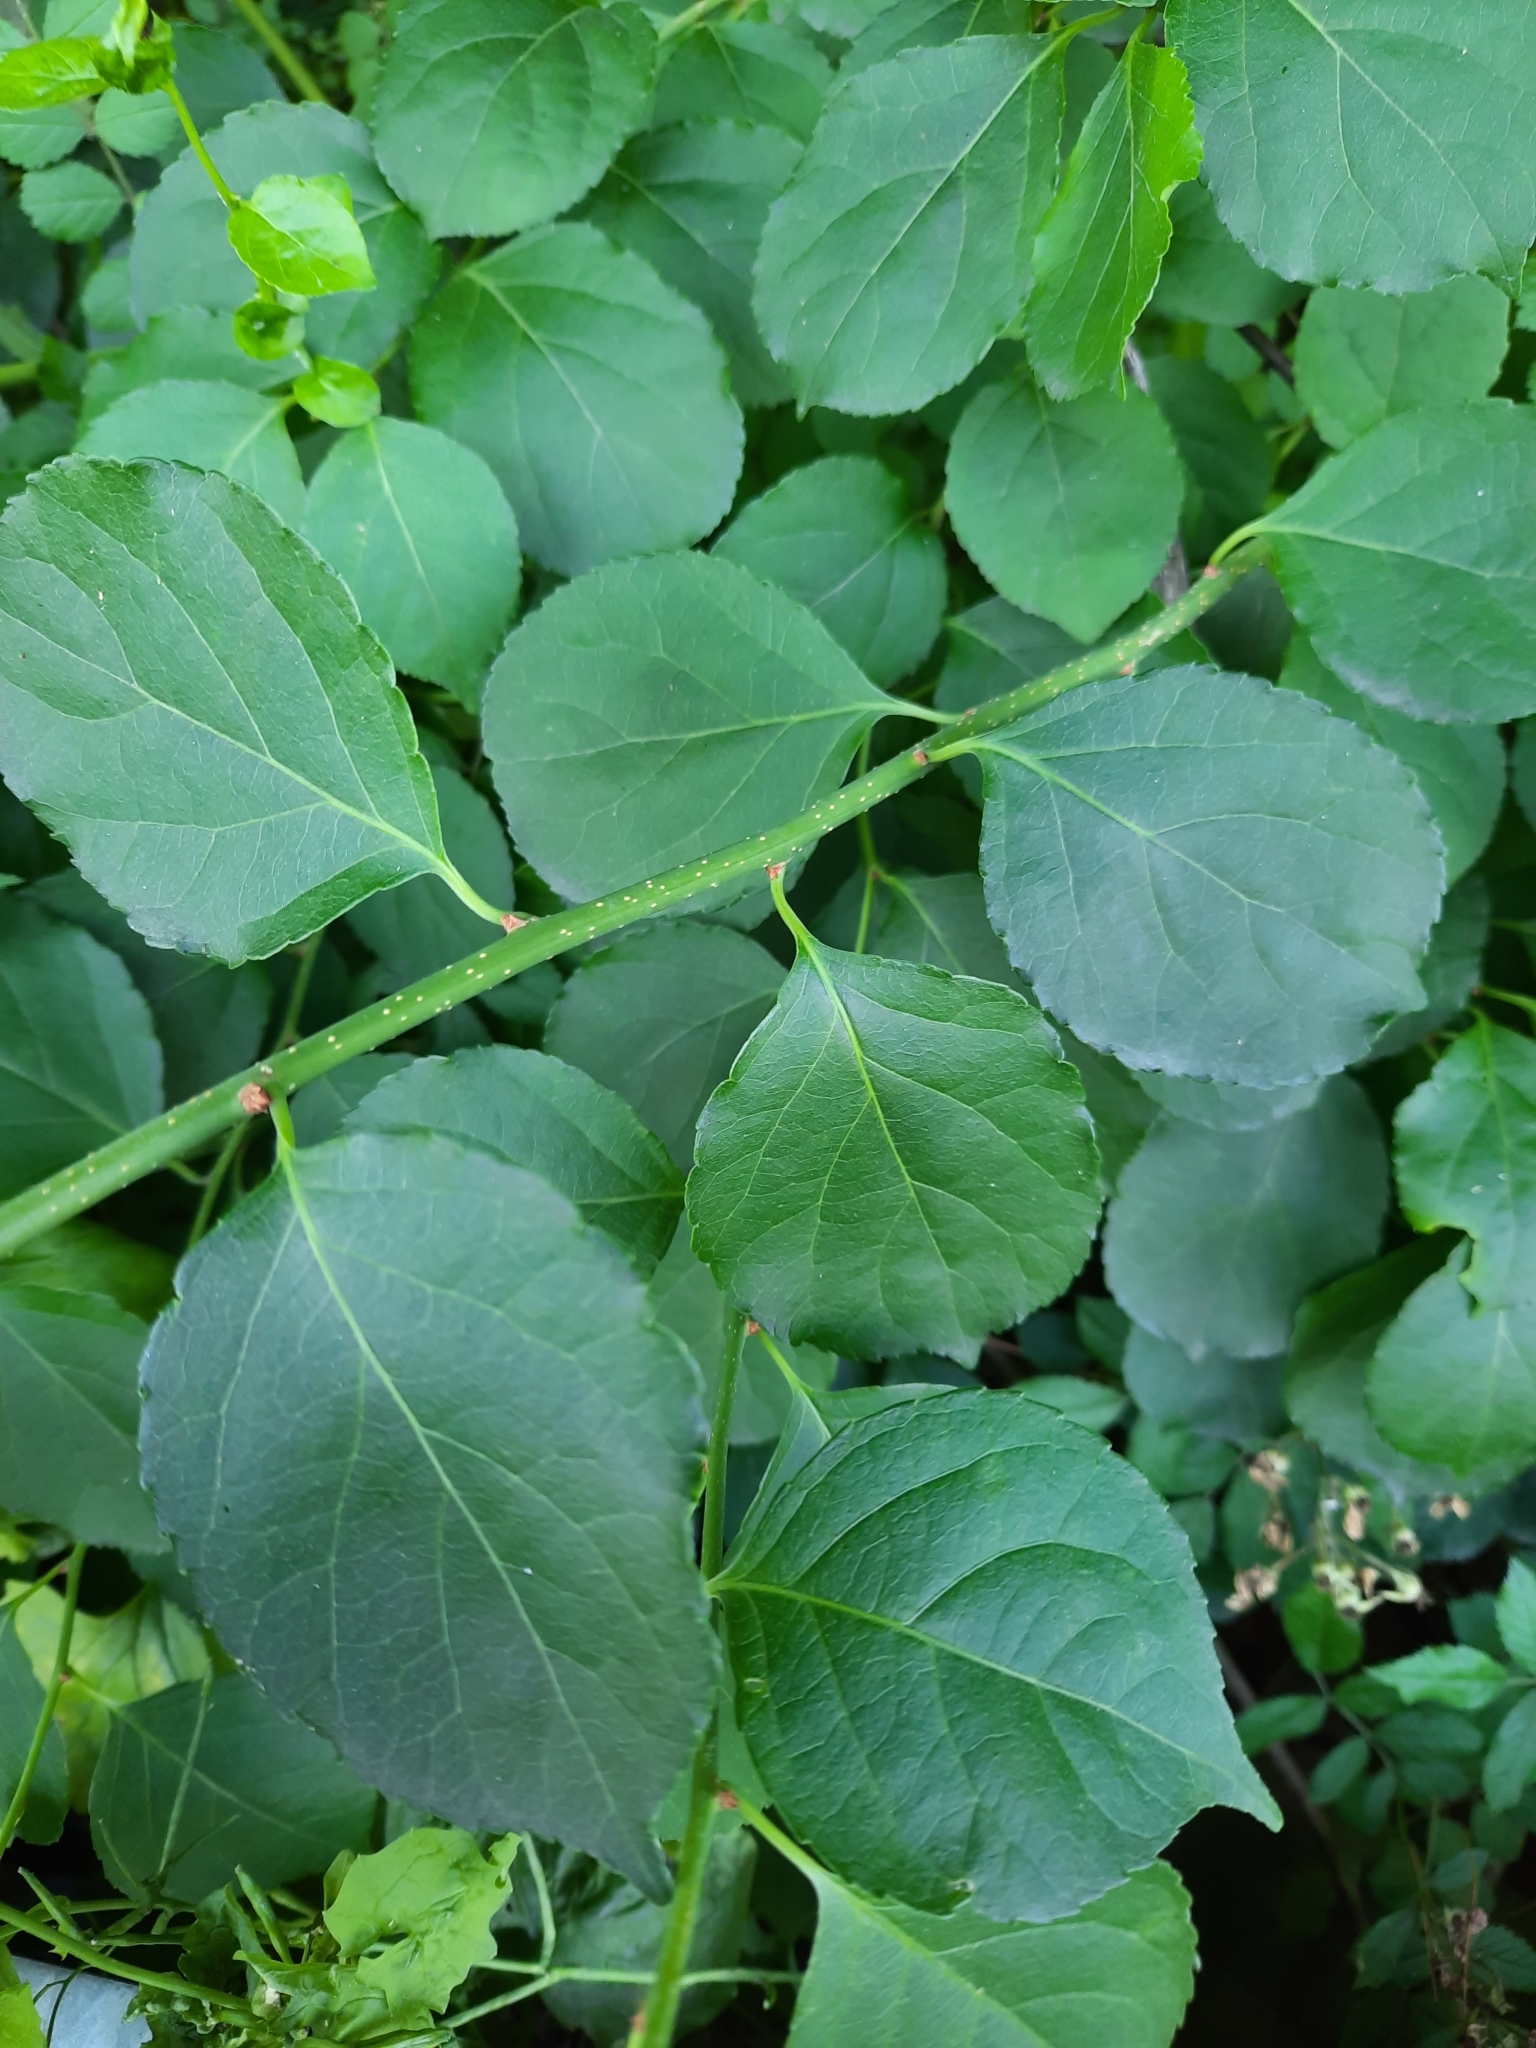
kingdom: Plantae
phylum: Tracheophyta
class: Magnoliopsida
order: Celastrales
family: Celastraceae
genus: Celastrus
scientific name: Celastrus orbiculatus
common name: Oriental bittersweet
